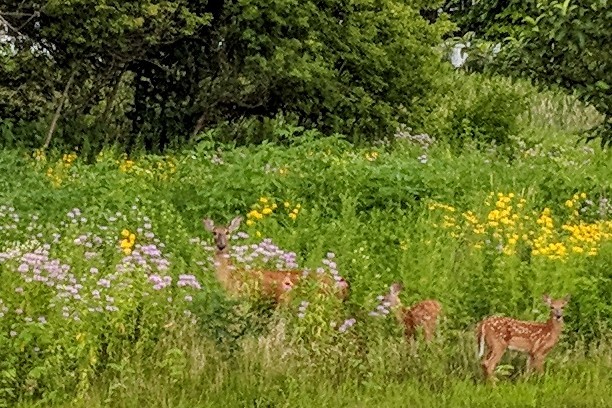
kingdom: Animalia
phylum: Chordata
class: Mammalia
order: Artiodactyla
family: Cervidae
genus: Odocoileus
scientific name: Odocoileus virginianus
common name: White-tailed deer
